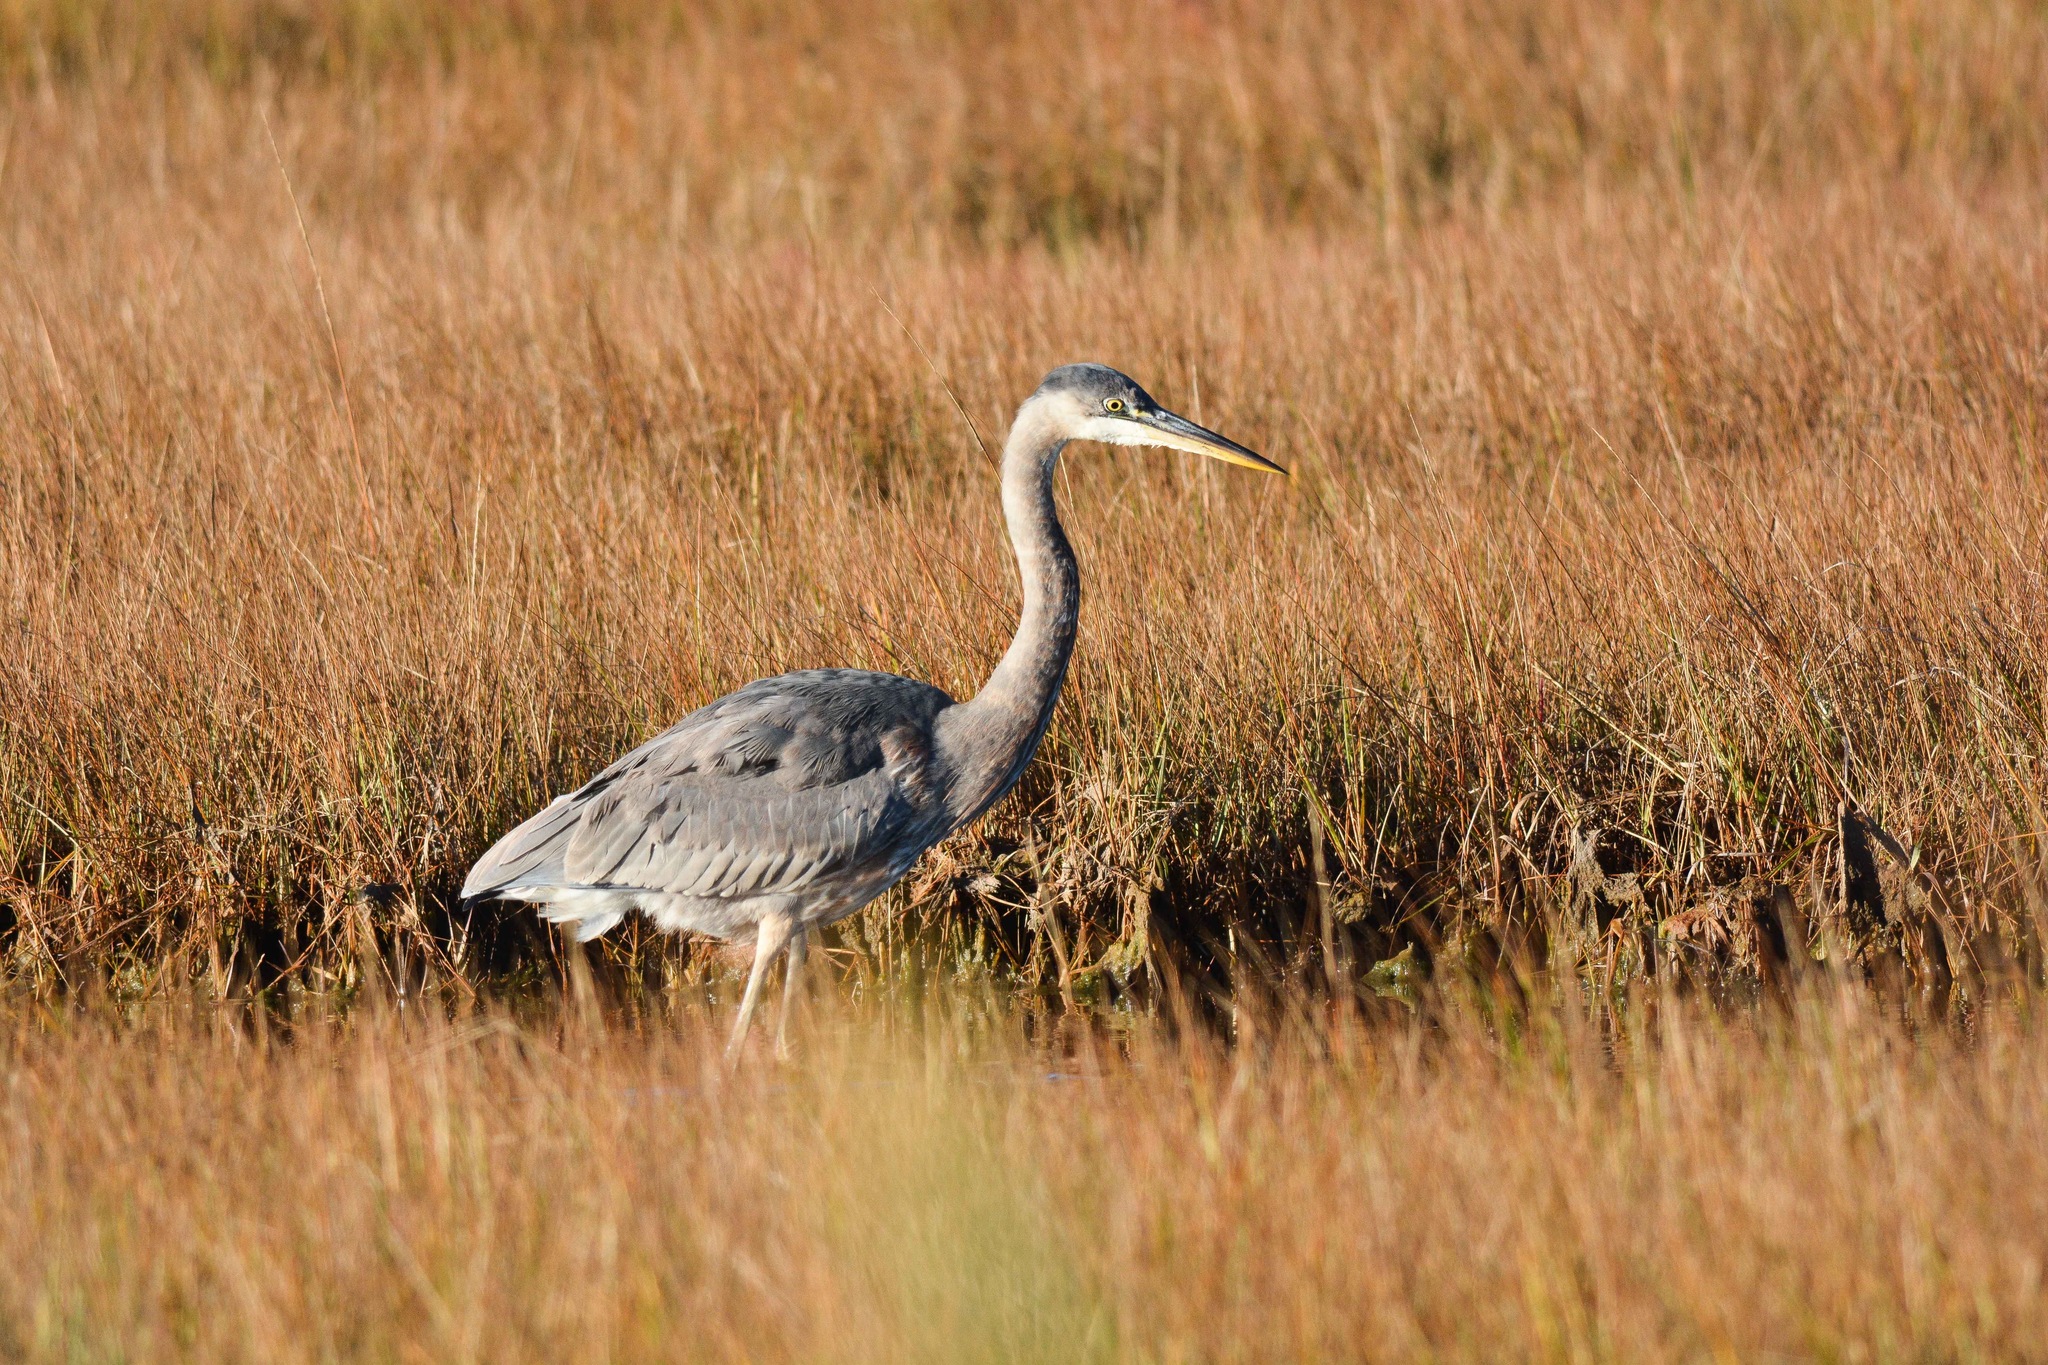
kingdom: Animalia
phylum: Chordata
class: Aves
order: Pelecaniformes
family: Ardeidae
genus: Ardea
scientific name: Ardea herodias
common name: Great blue heron
